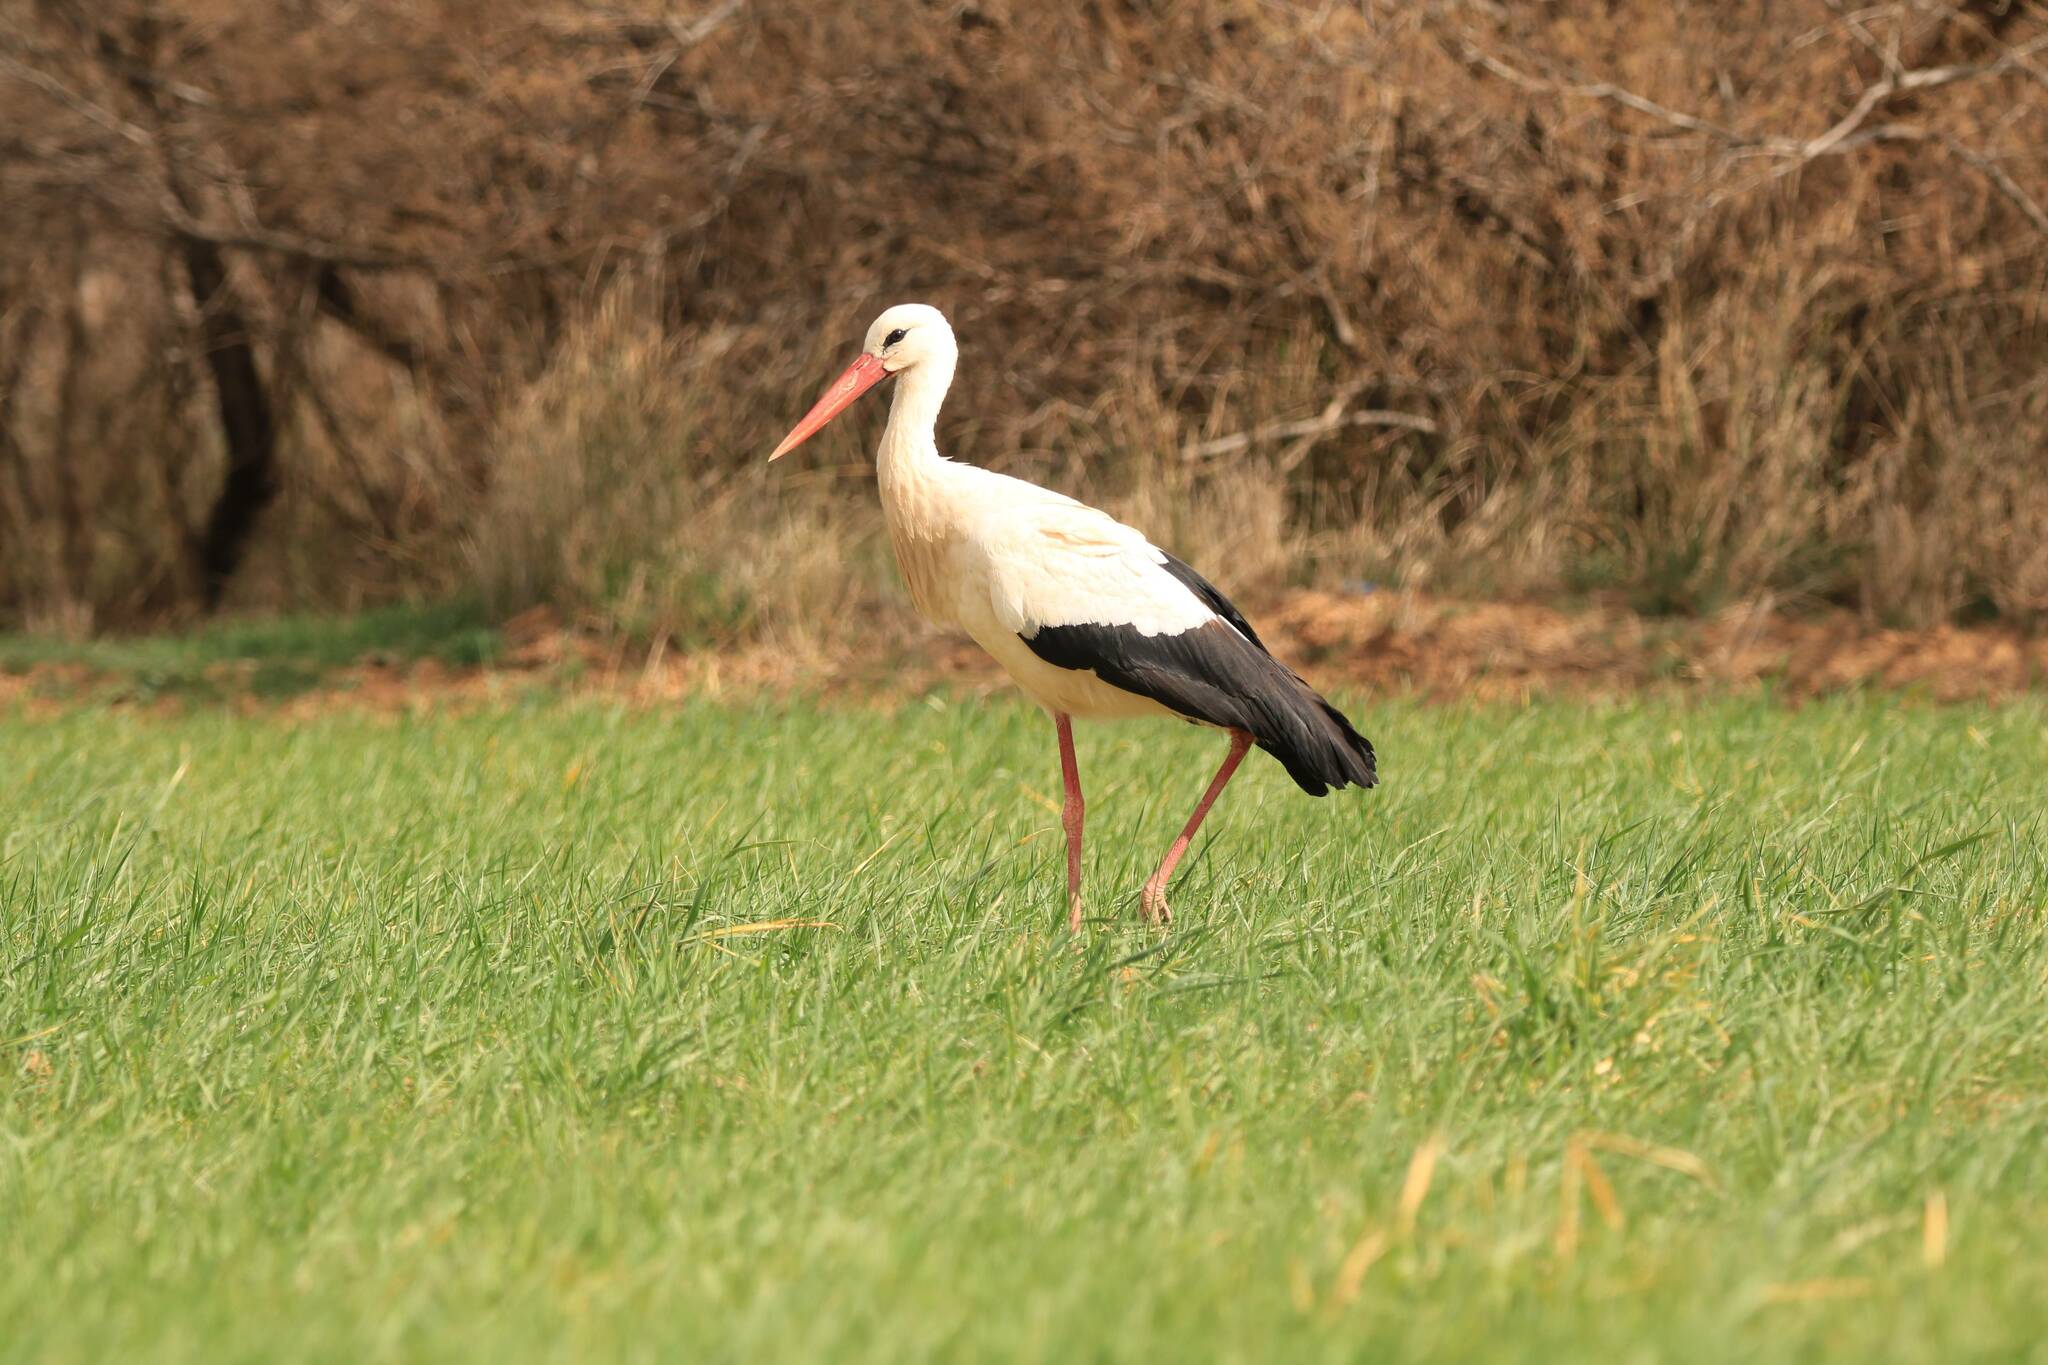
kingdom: Animalia
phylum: Chordata
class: Aves
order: Ciconiiformes
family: Ciconiidae
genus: Ciconia
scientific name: Ciconia ciconia
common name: White stork
